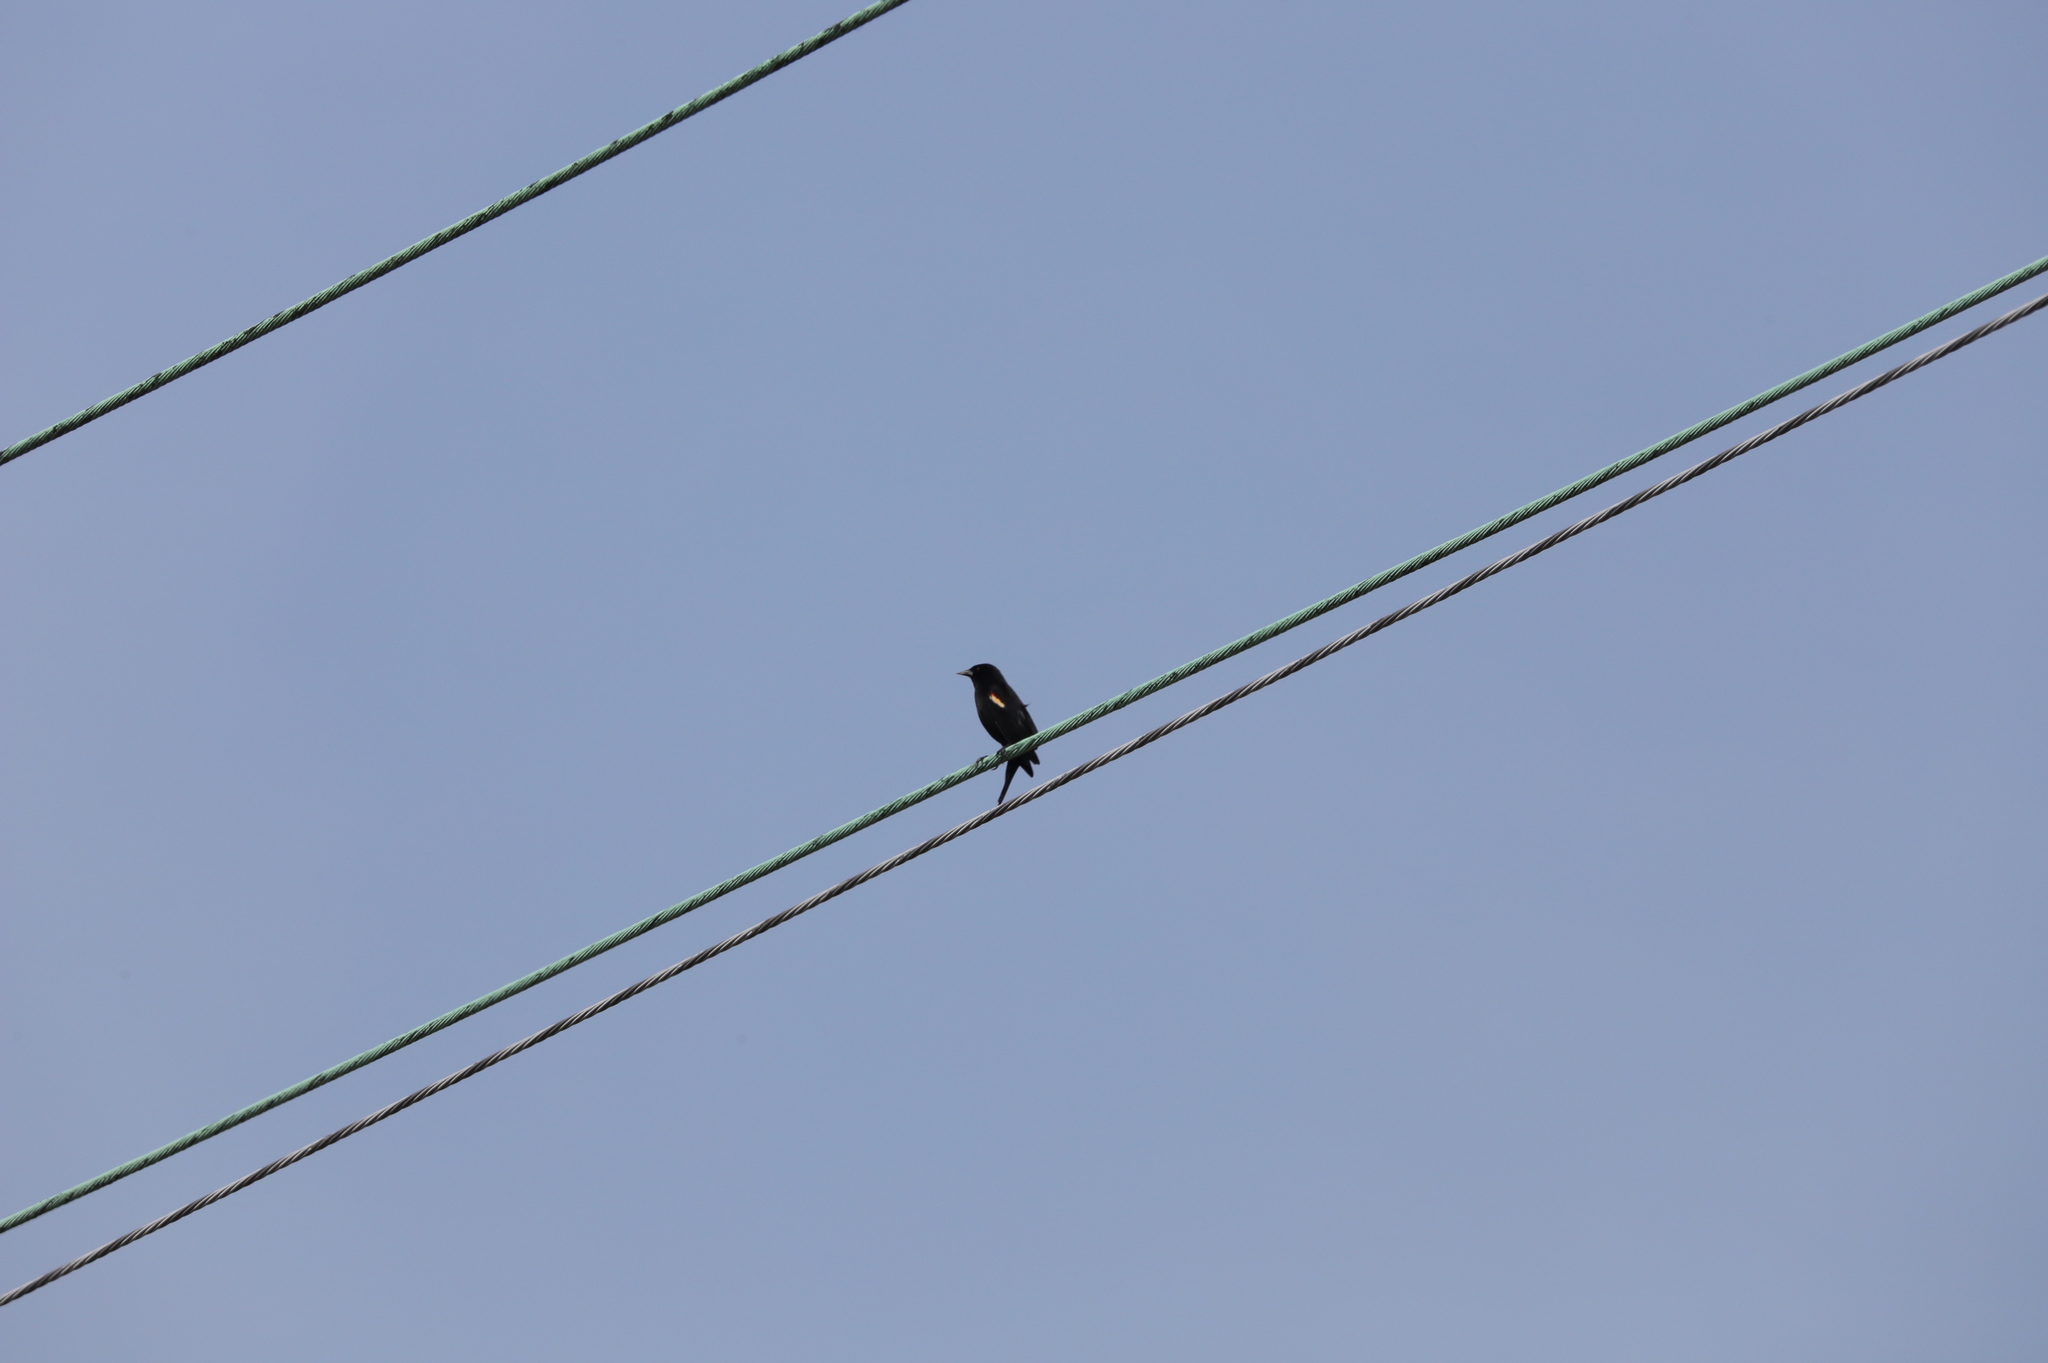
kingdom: Animalia
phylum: Chordata
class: Aves
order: Passeriformes
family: Icteridae
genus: Agelaius
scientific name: Agelaius phoeniceus
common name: Red-winged blackbird
